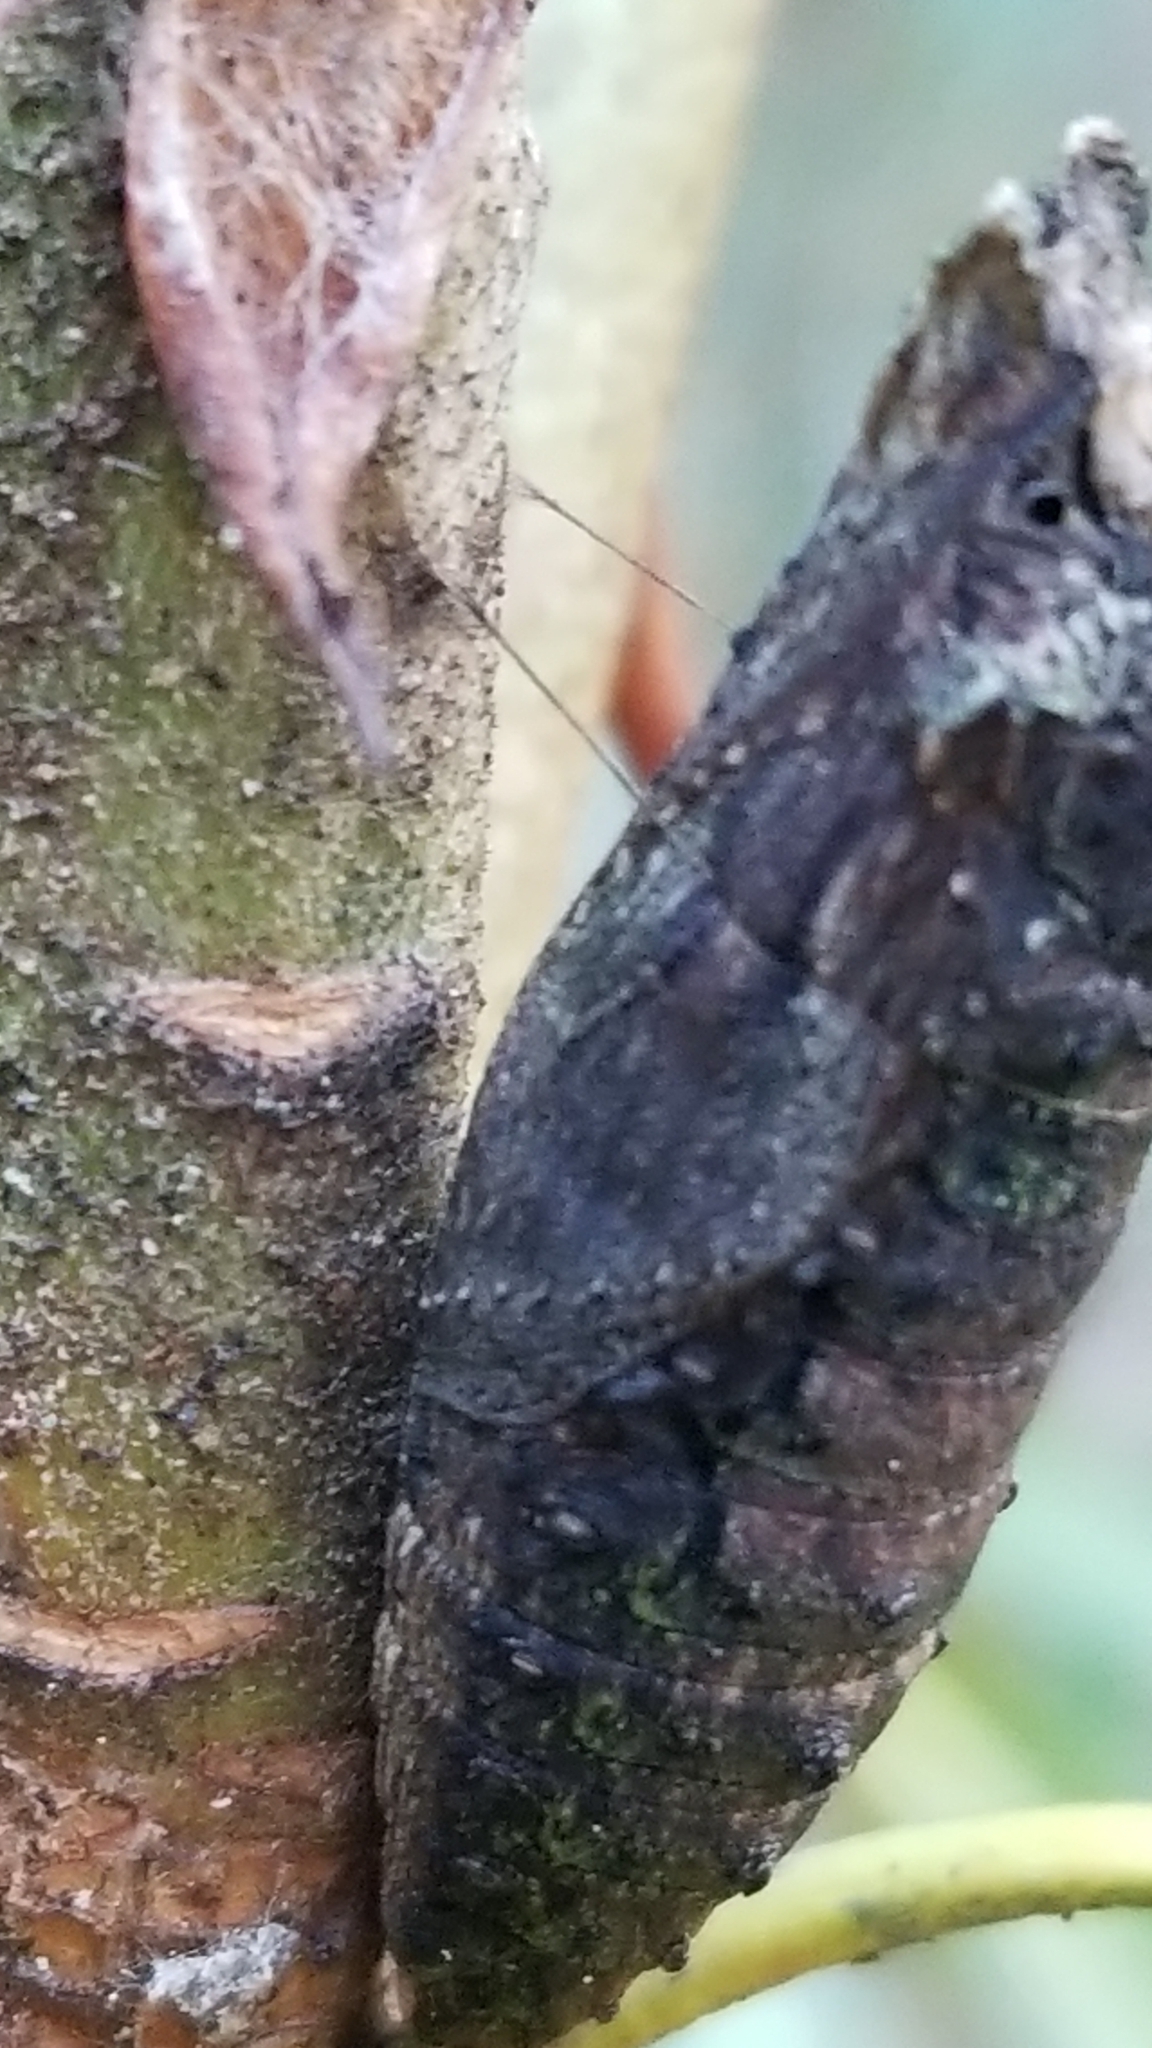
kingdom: Animalia
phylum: Arthropoda
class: Insecta
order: Lepidoptera
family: Papilionidae
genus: Papilio
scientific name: Papilio glaucus
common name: Tiger swallowtail
